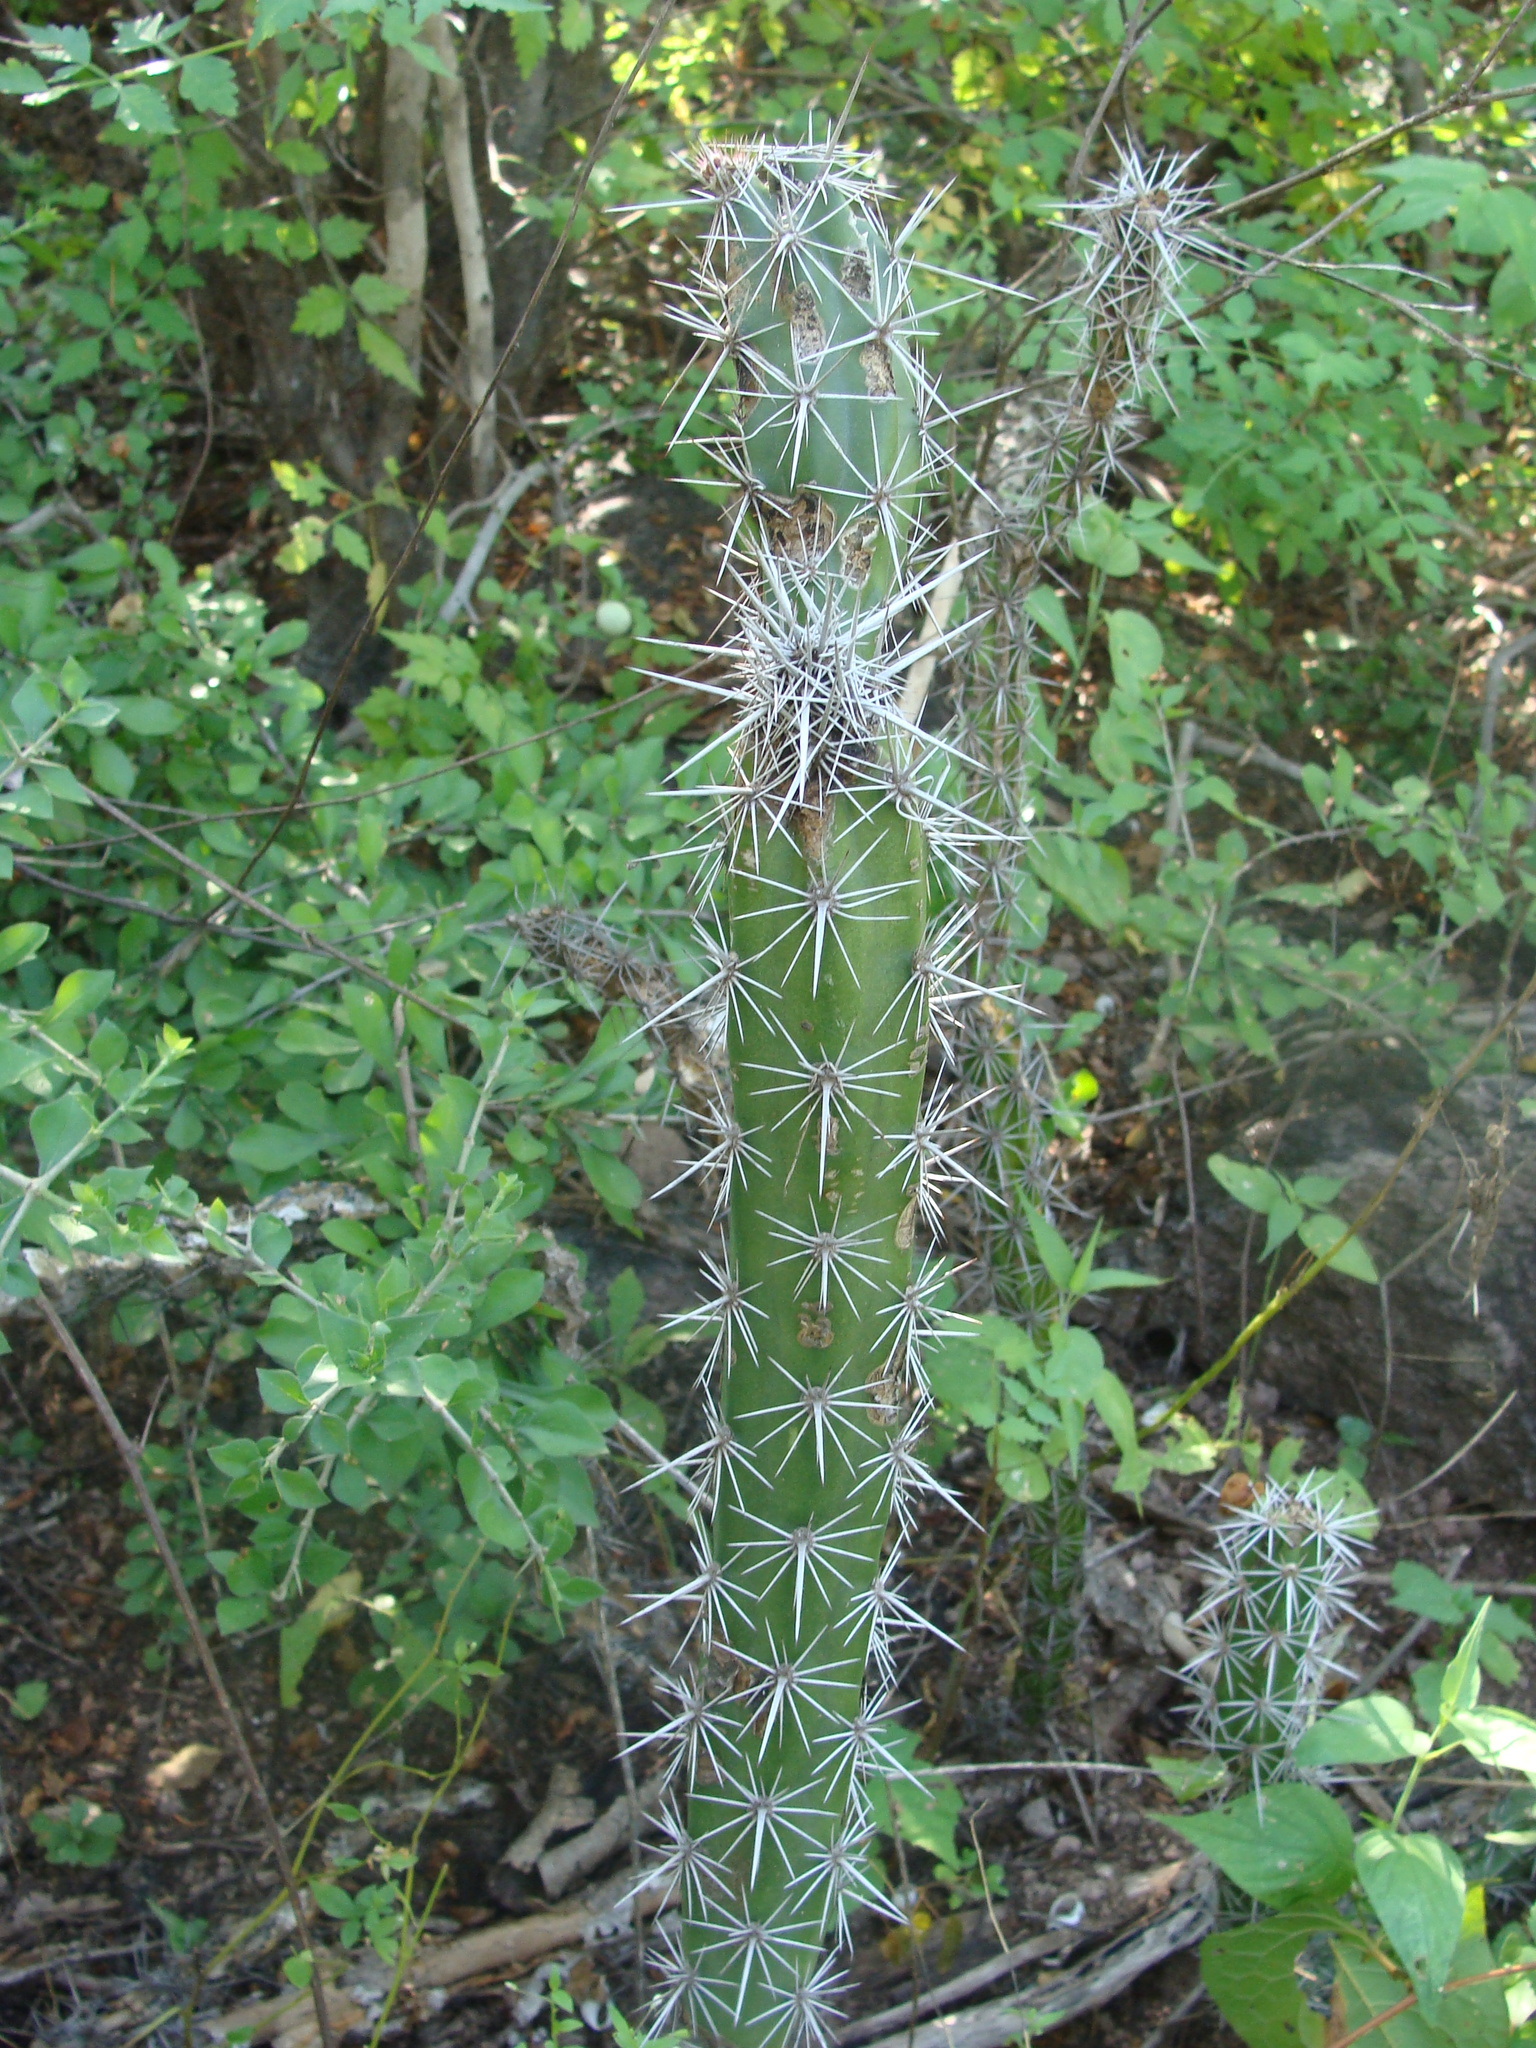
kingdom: Plantae
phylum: Tracheophyta
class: Magnoliopsida
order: Caryophyllales
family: Cactaceae
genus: Stenocereus
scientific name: Stenocereus alamosensis
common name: Octopus cactus
